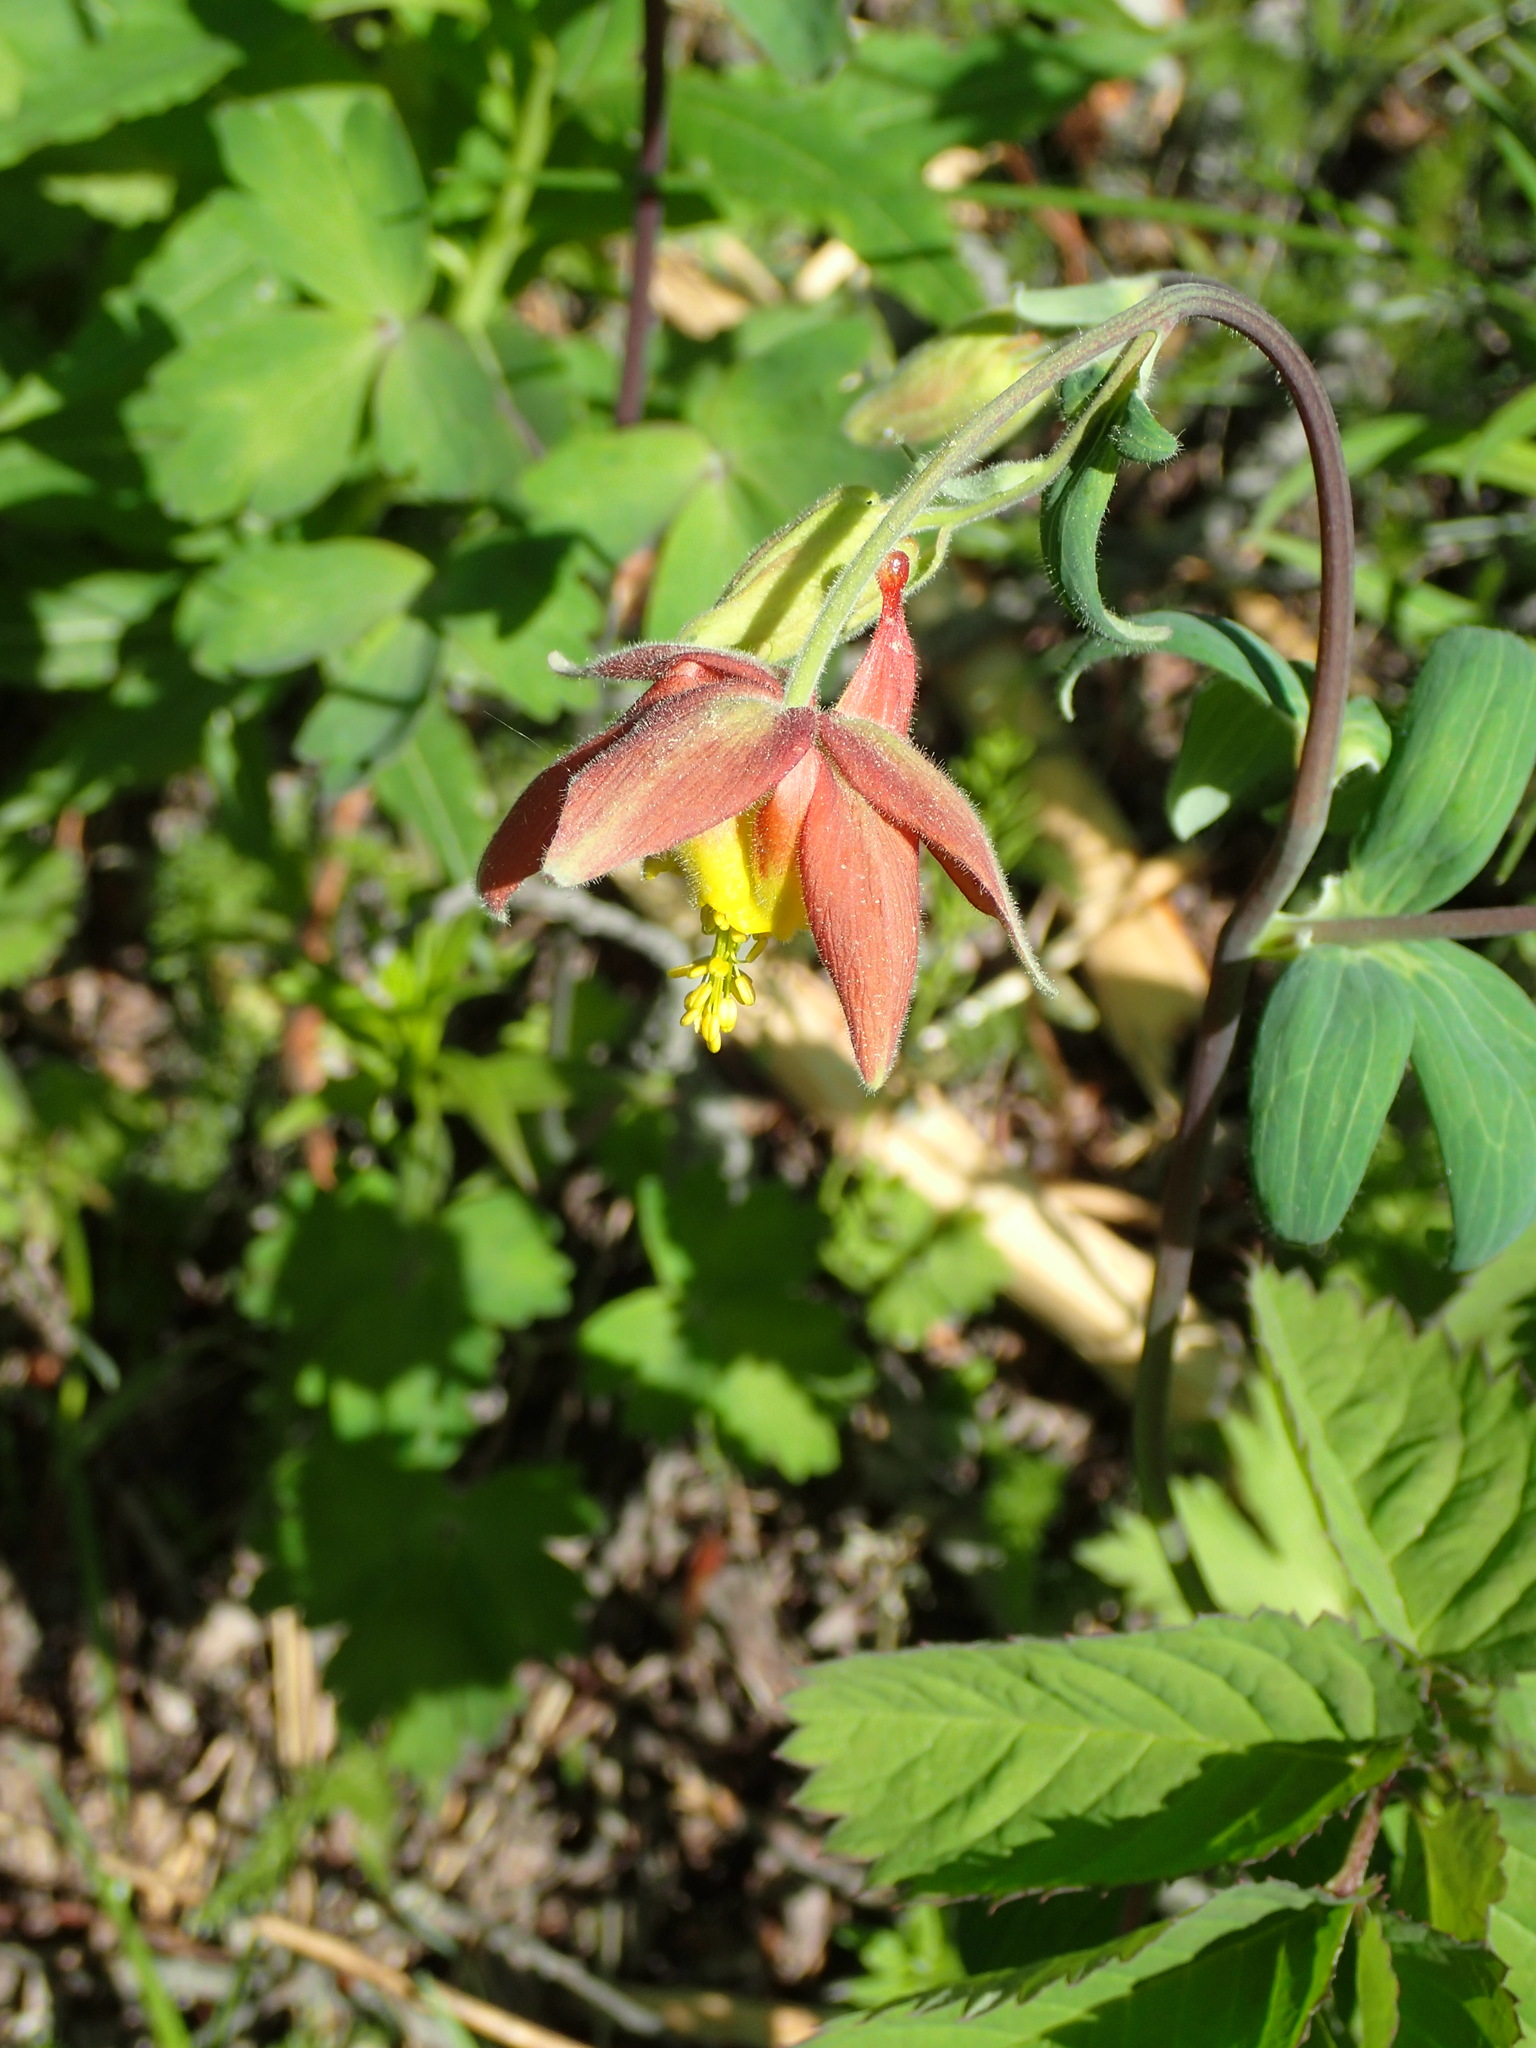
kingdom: Plantae
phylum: Tracheophyta
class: Magnoliopsida
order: Ranunculales
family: Ranunculaceae
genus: Aquilegia
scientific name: Aquilegia formosa
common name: Sitka columbine
